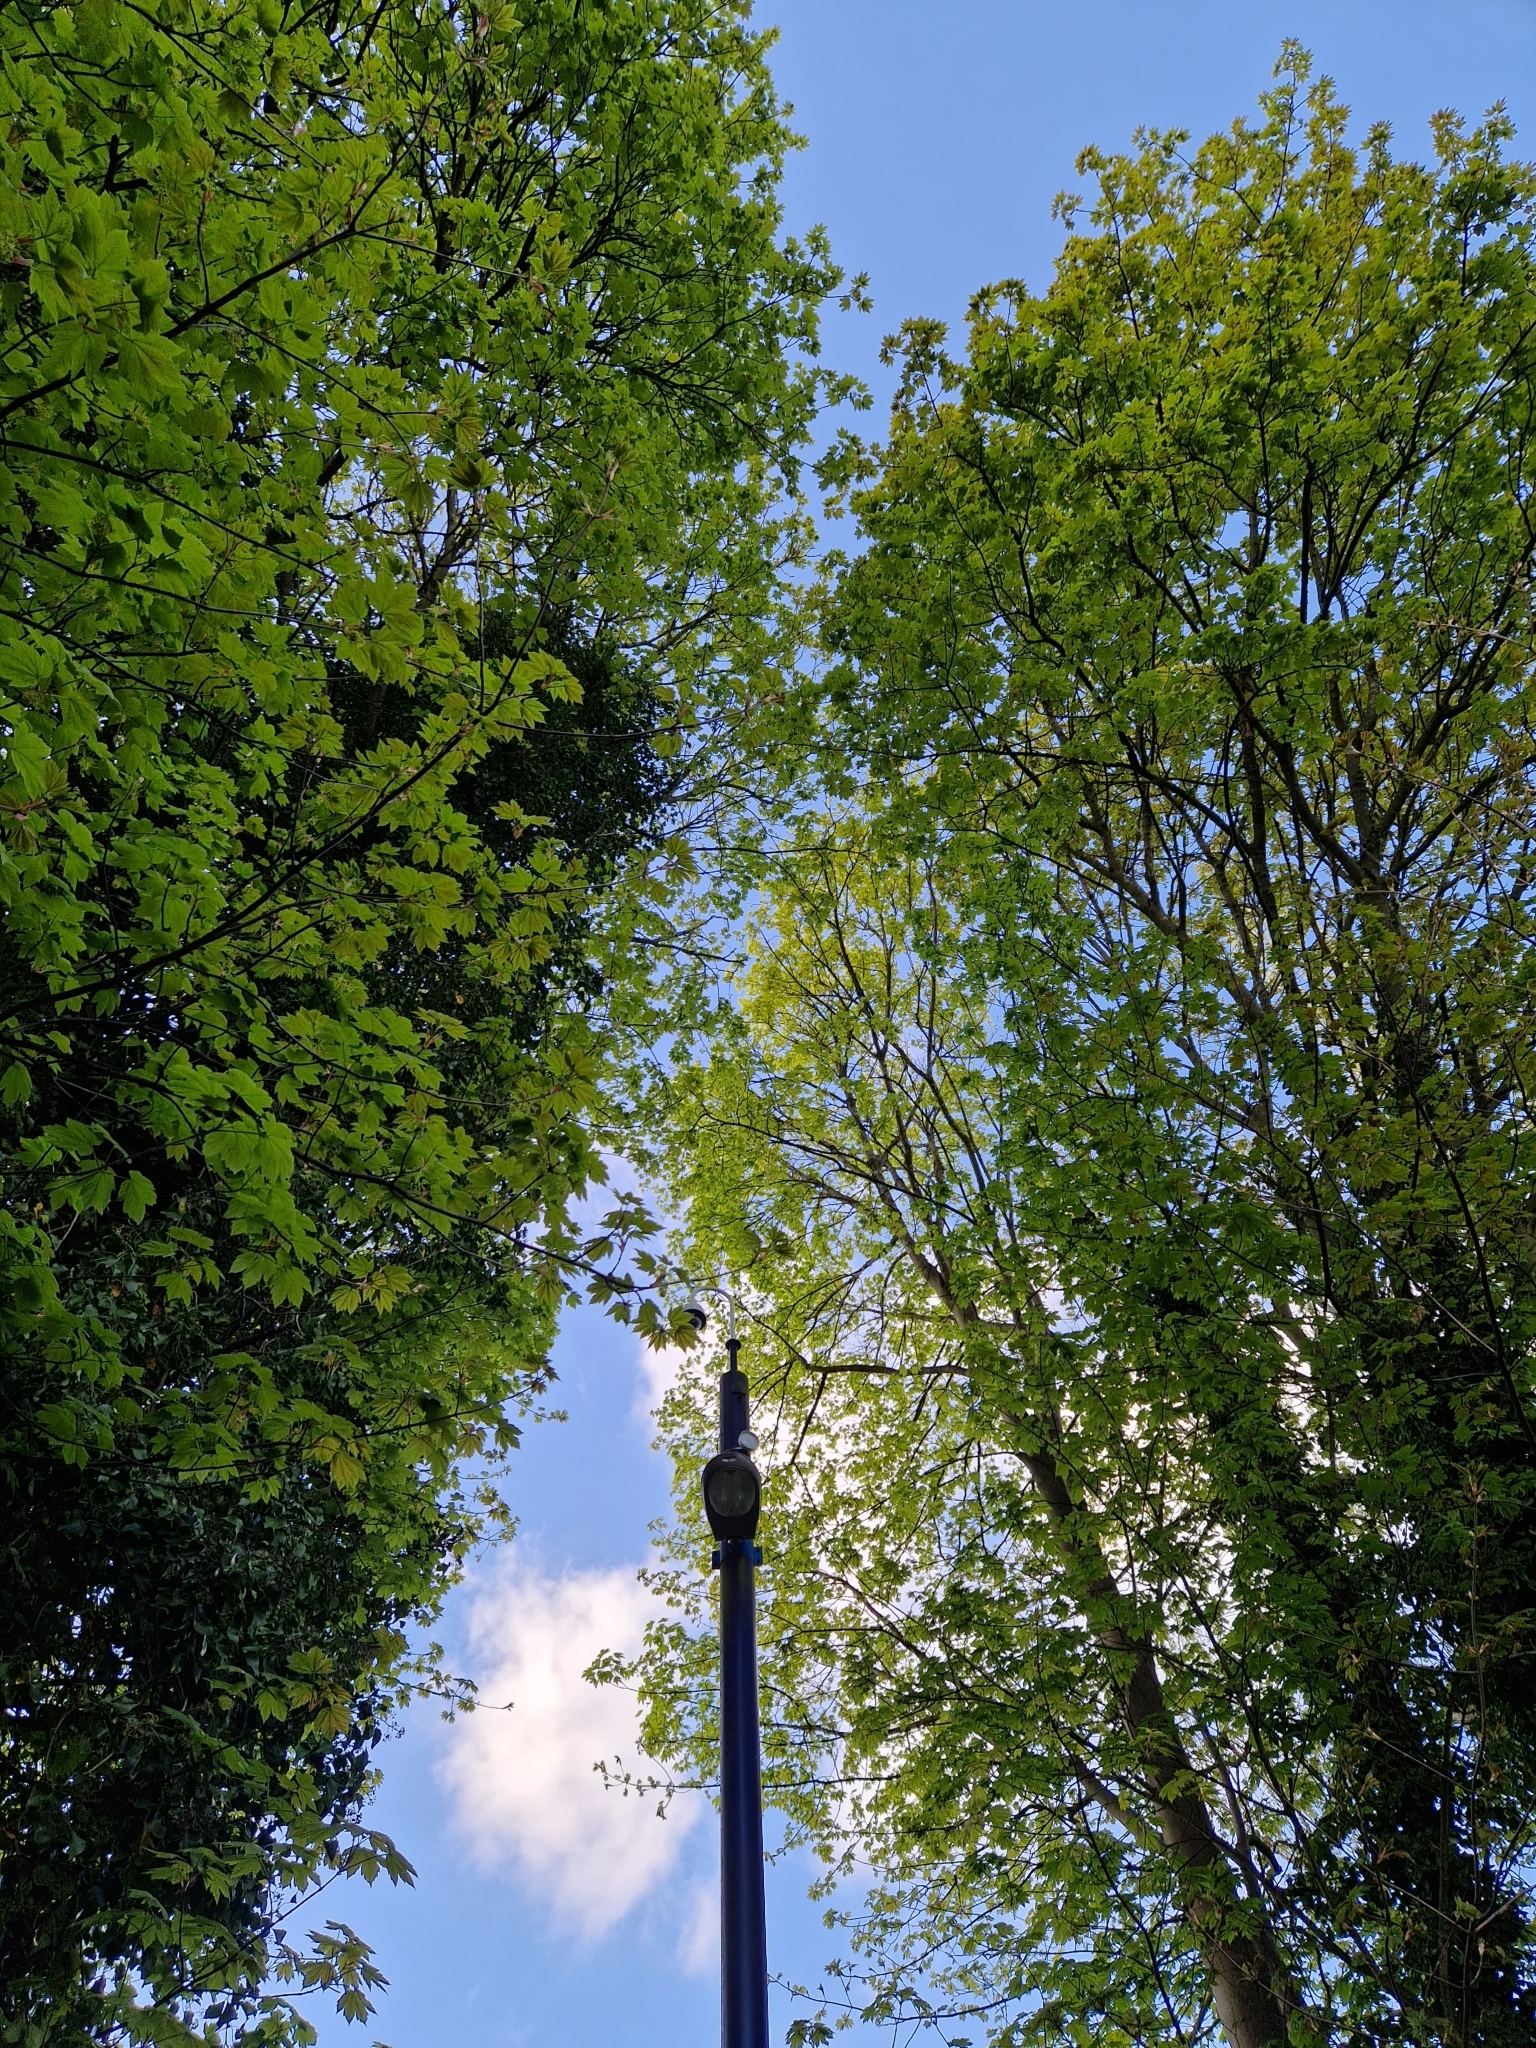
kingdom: Plantae
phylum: Tracheophyta
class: Magnoliopsida
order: Sapindales
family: Sapindaceae
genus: Acer
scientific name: Acer pseudoplatanus
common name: Sycamore
